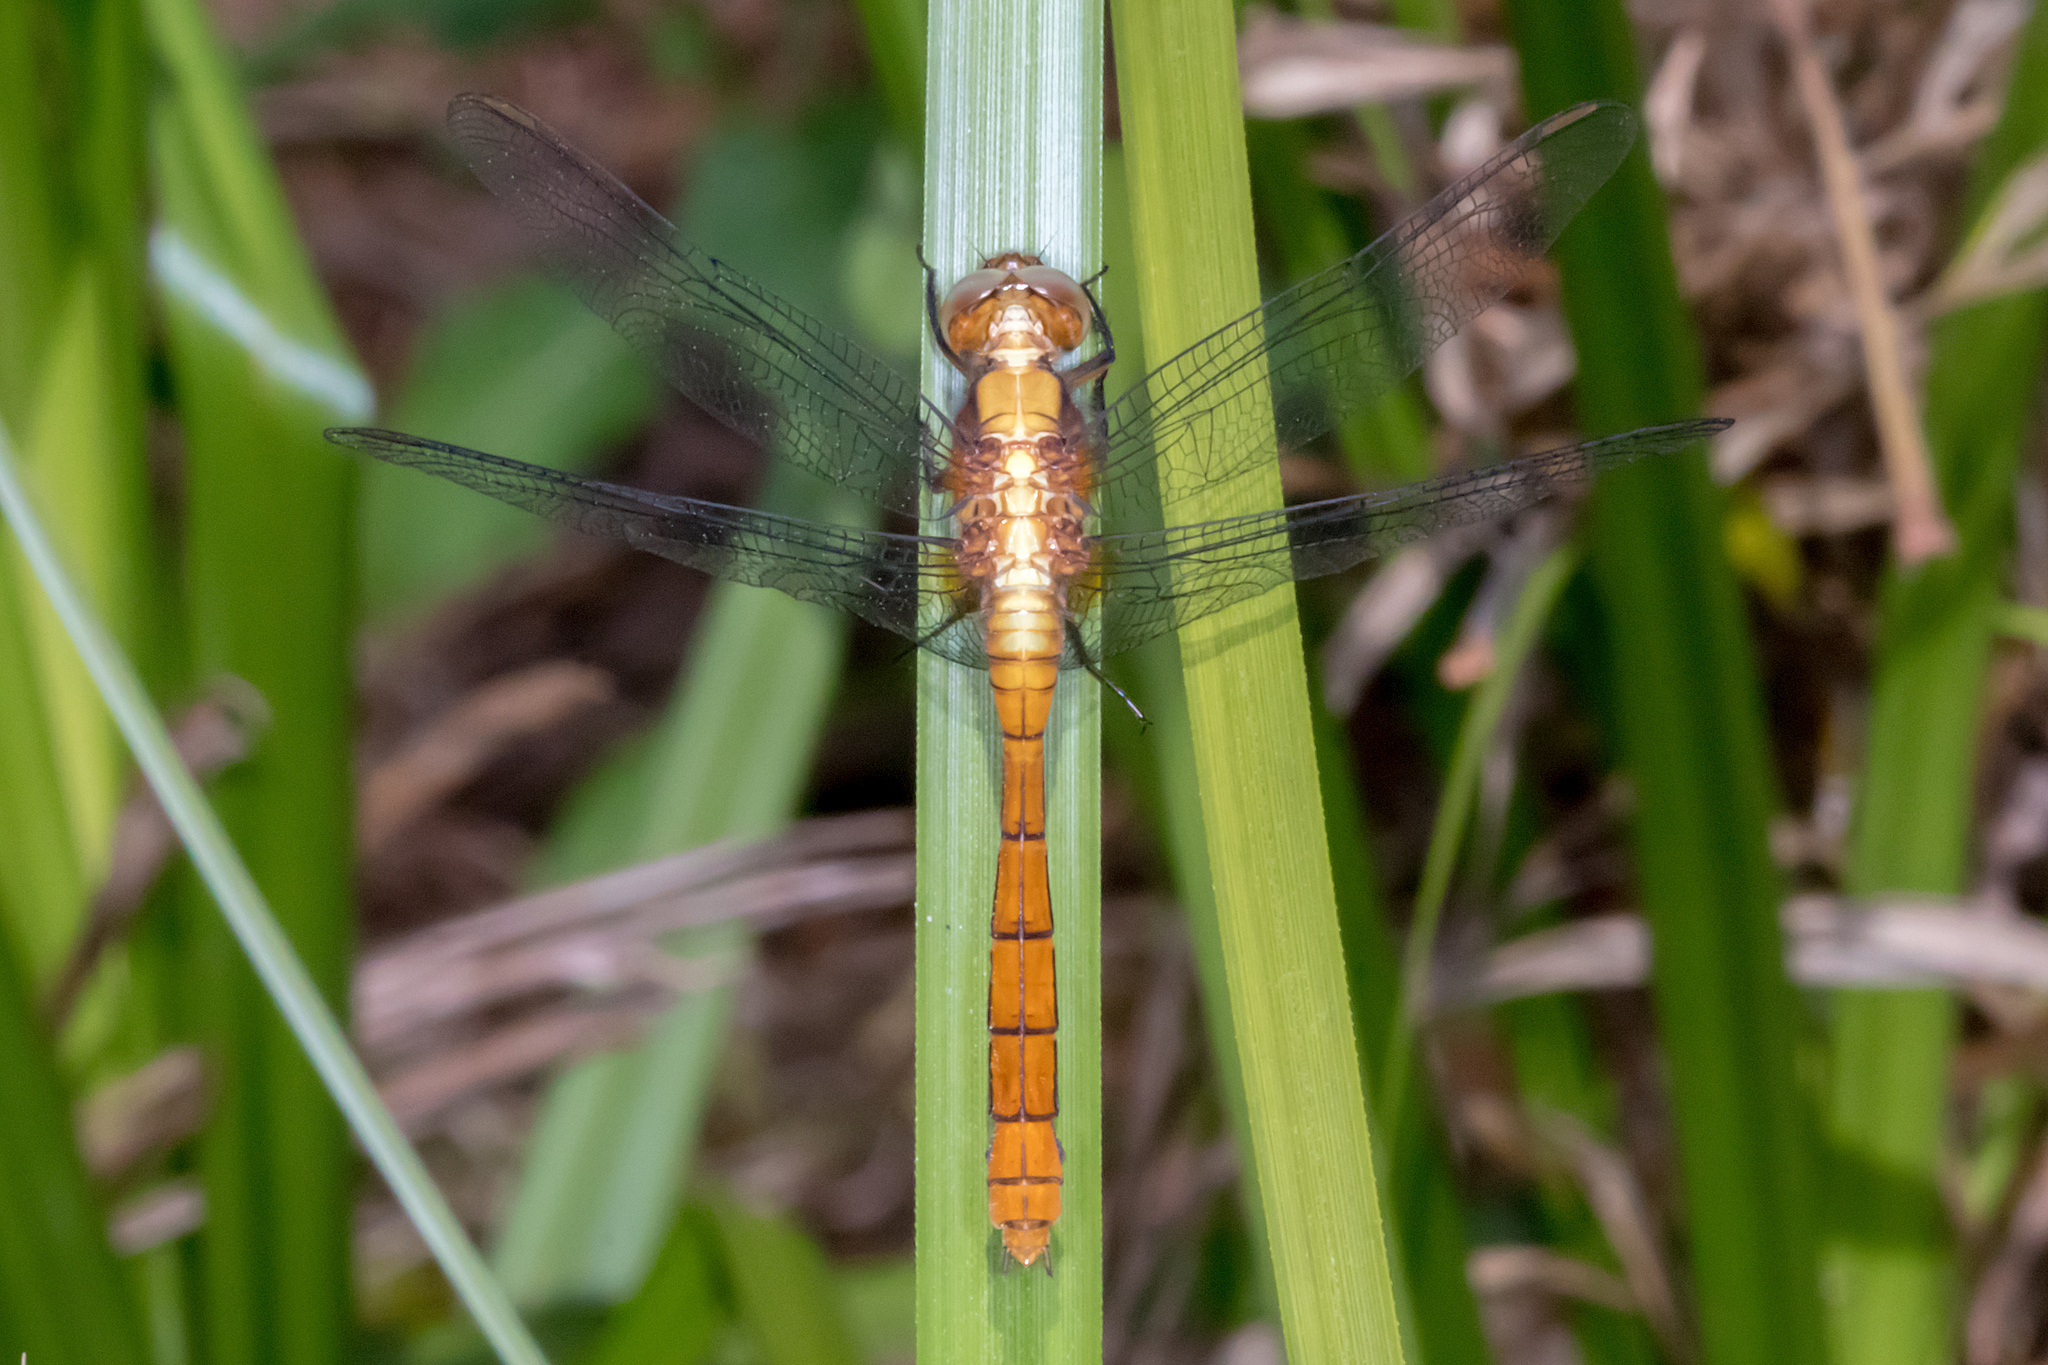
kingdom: Animalia
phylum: Arthropoda
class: Insecta
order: Odonata
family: Libellulidae
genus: Orthetrum
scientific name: Orthetrum villosovittatum
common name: Firery skimmer
